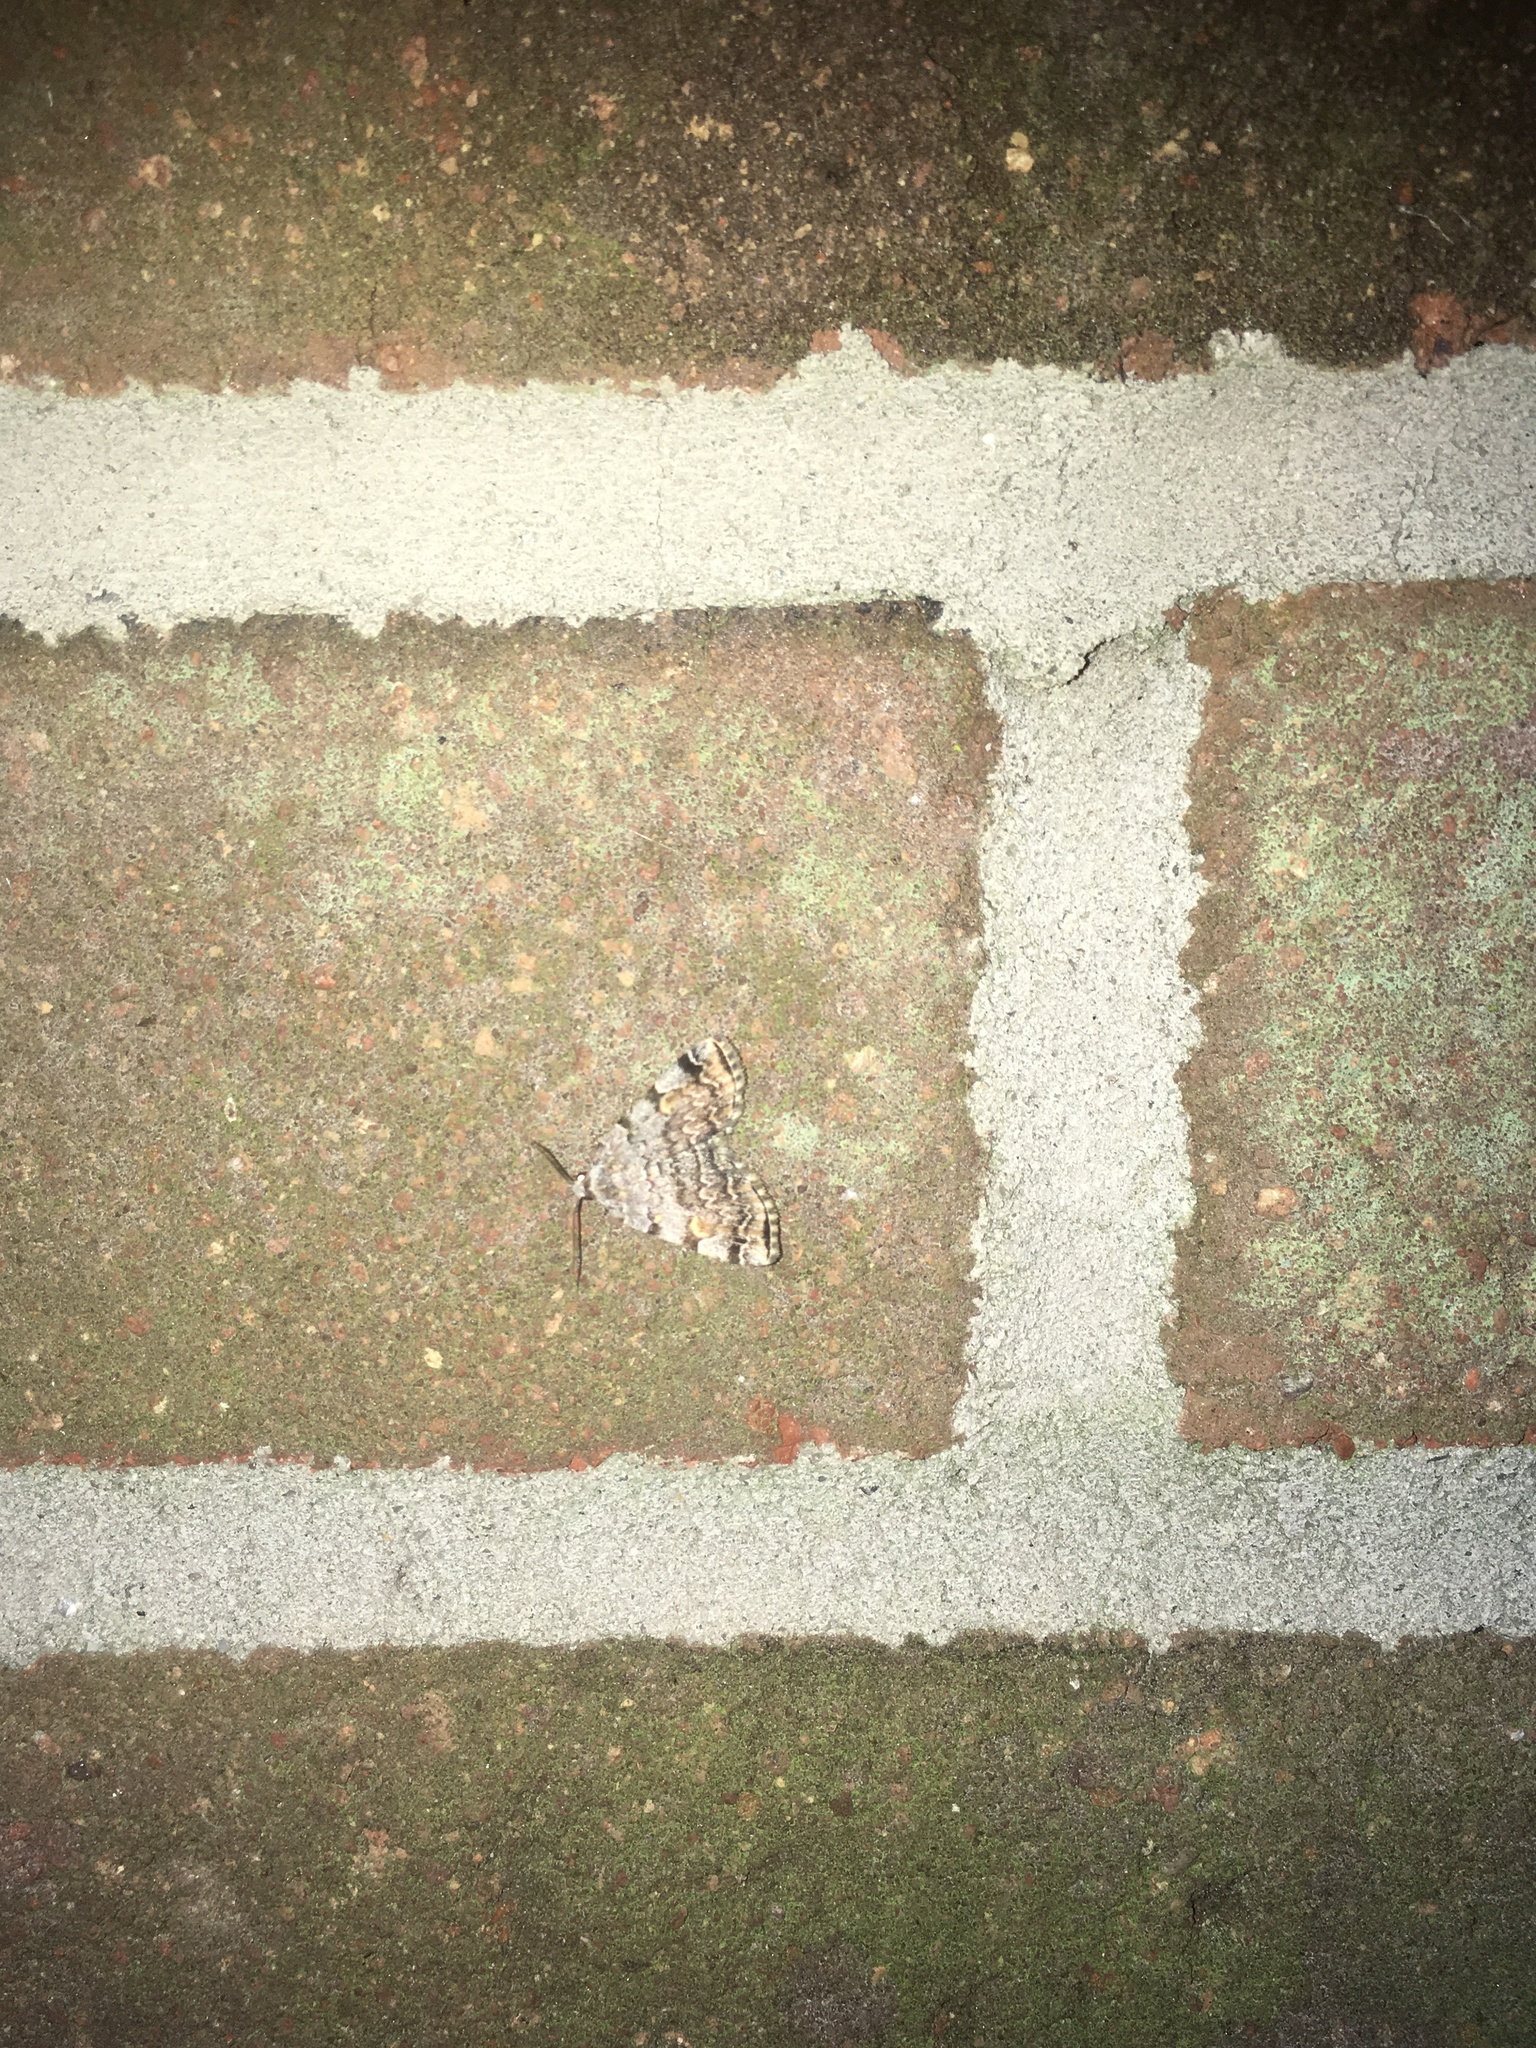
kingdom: Animalia
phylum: Arthropoda
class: Insecta
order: Lepidoptera
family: Erebidae
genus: Idia
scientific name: Idia americalis
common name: American idia moth
